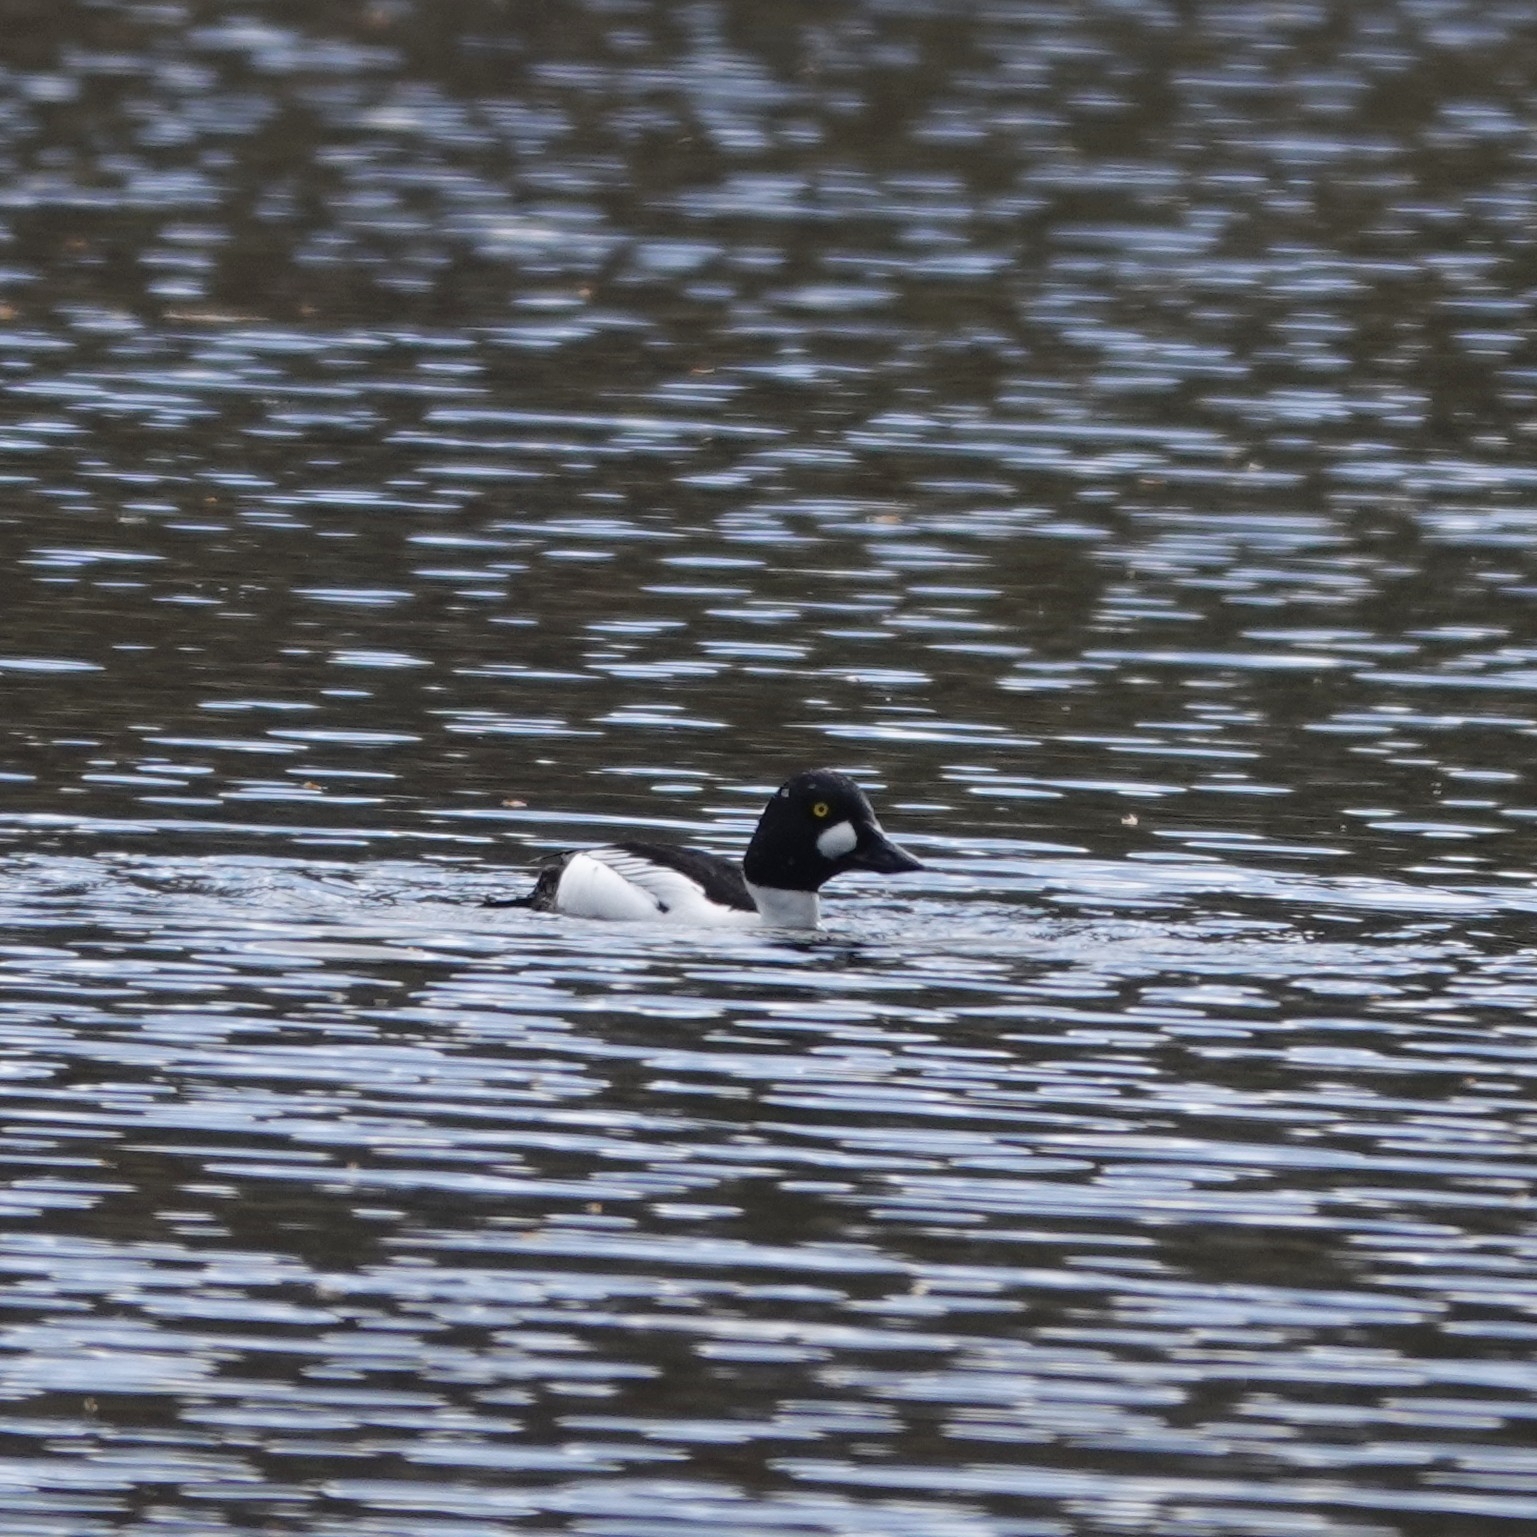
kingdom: Animalia
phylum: Chordata
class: Aves
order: Anseriformes
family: Anatidae
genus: Bucephala
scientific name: Bucephala clangula
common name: Common goldeneye
